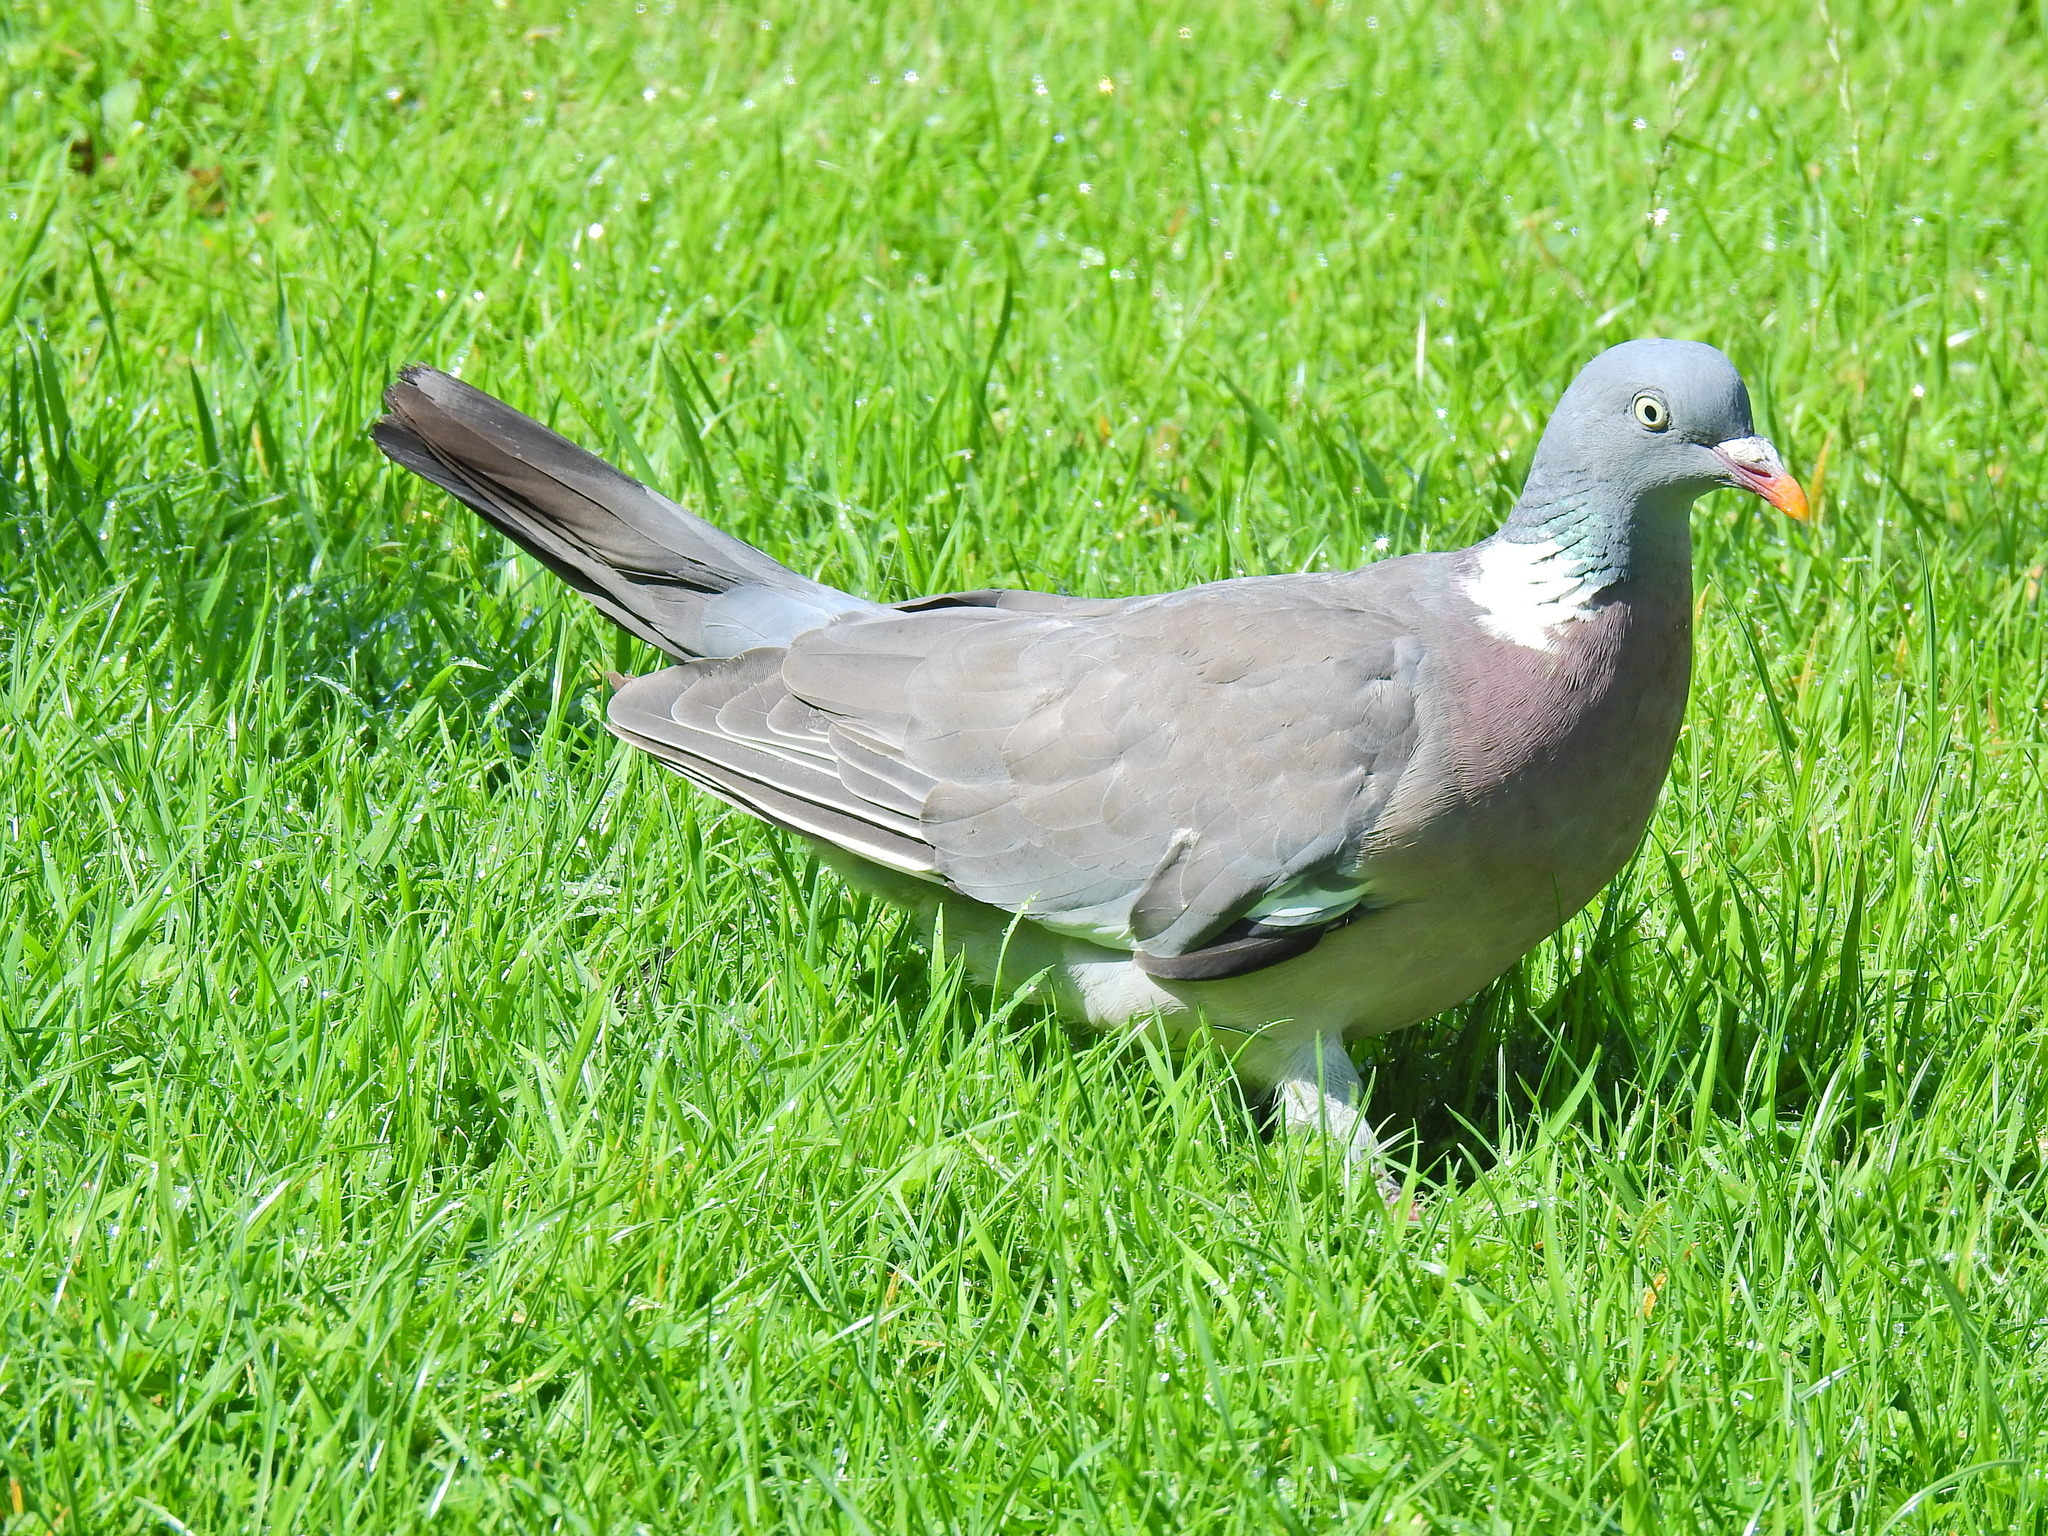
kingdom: Animalia
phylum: Chordata
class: Aves
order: Columbiformes
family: Columbidae
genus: Columba
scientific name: Columba palumbus
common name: Common wood pigeon
